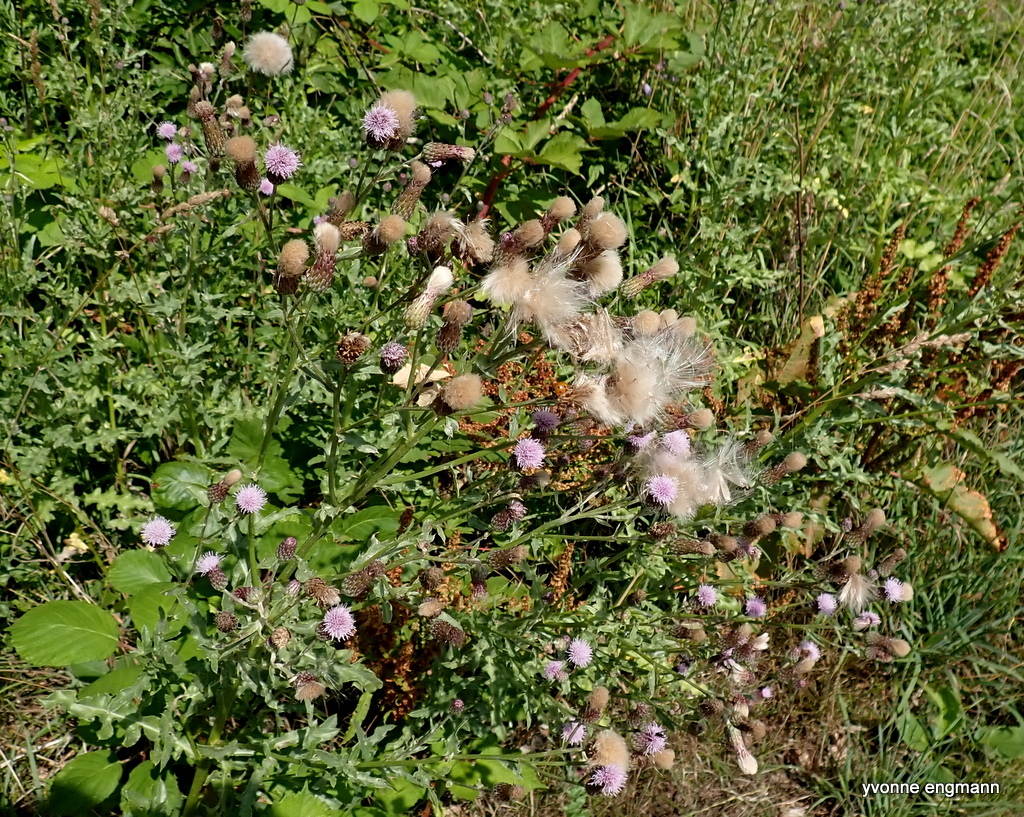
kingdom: Plantae
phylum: Tracheophyta
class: Magnoliopsida
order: Asterales
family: Asteraceae
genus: Cirsium
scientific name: Cirsium arvense
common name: Creeping thistle
